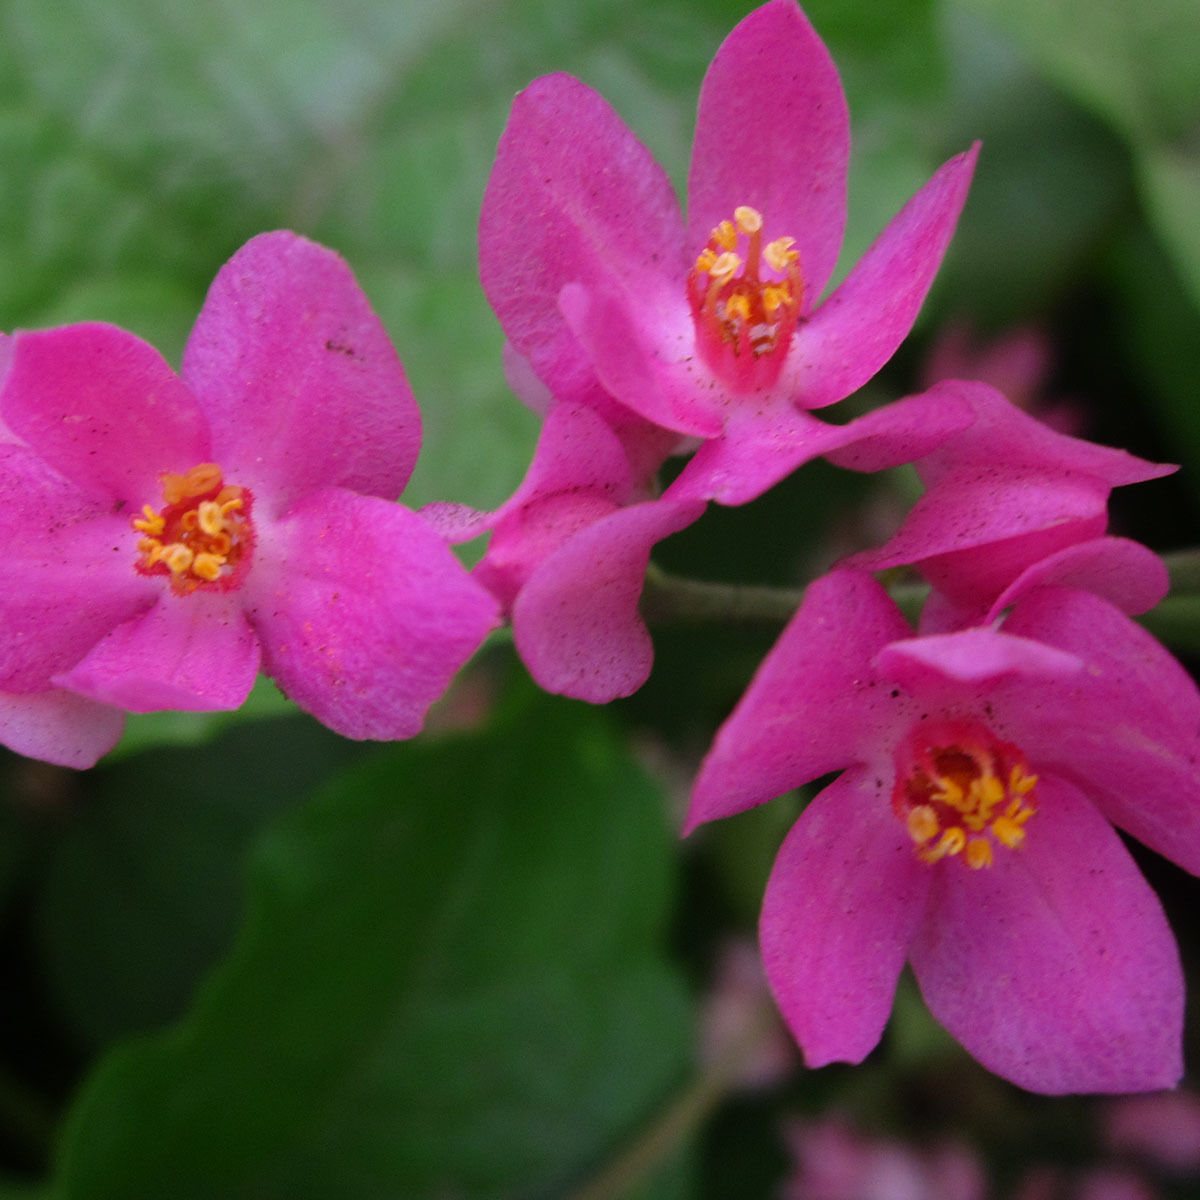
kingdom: Plantae
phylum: Tracheophyta
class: Magnoliopsida
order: Caryophyllales
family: Polygonaceae
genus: Antigonon
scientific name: Antigonon leptopus
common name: Coral vine
